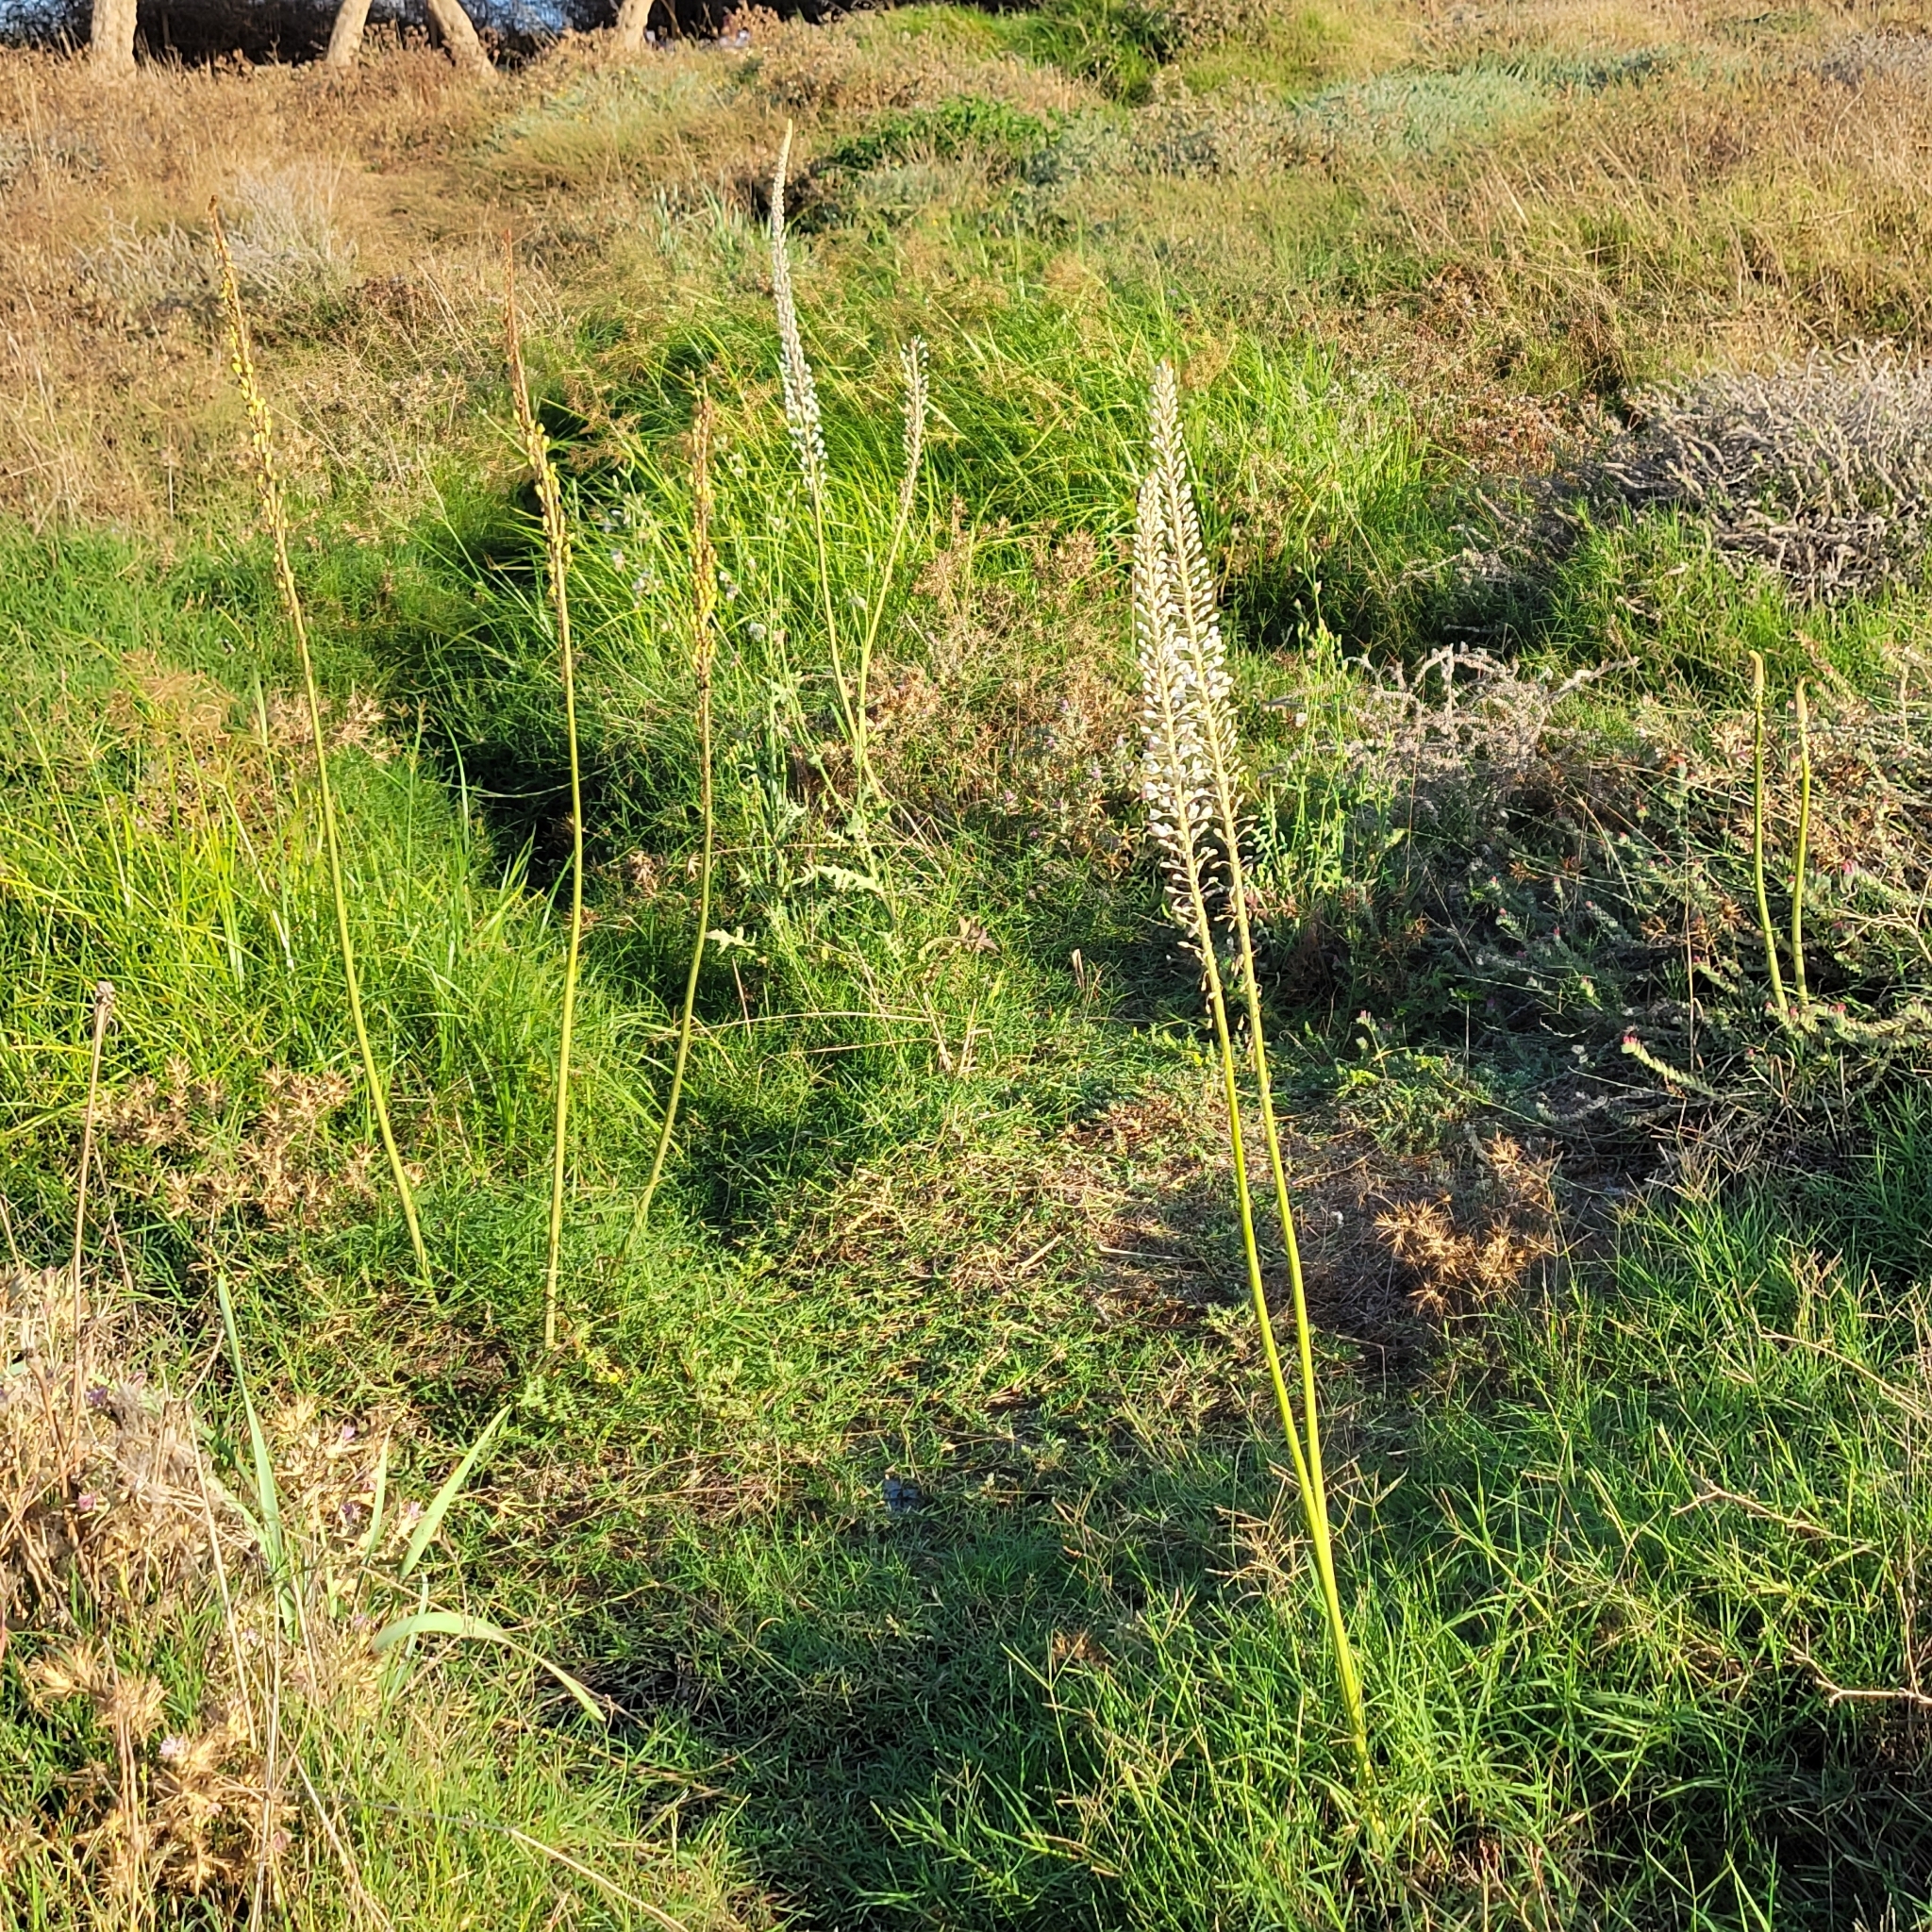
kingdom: Plantae
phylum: Tracheophyta
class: Liliopsida
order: Asparagales
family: Asparagaceae
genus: Drimia
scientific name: Drimia aphylla
